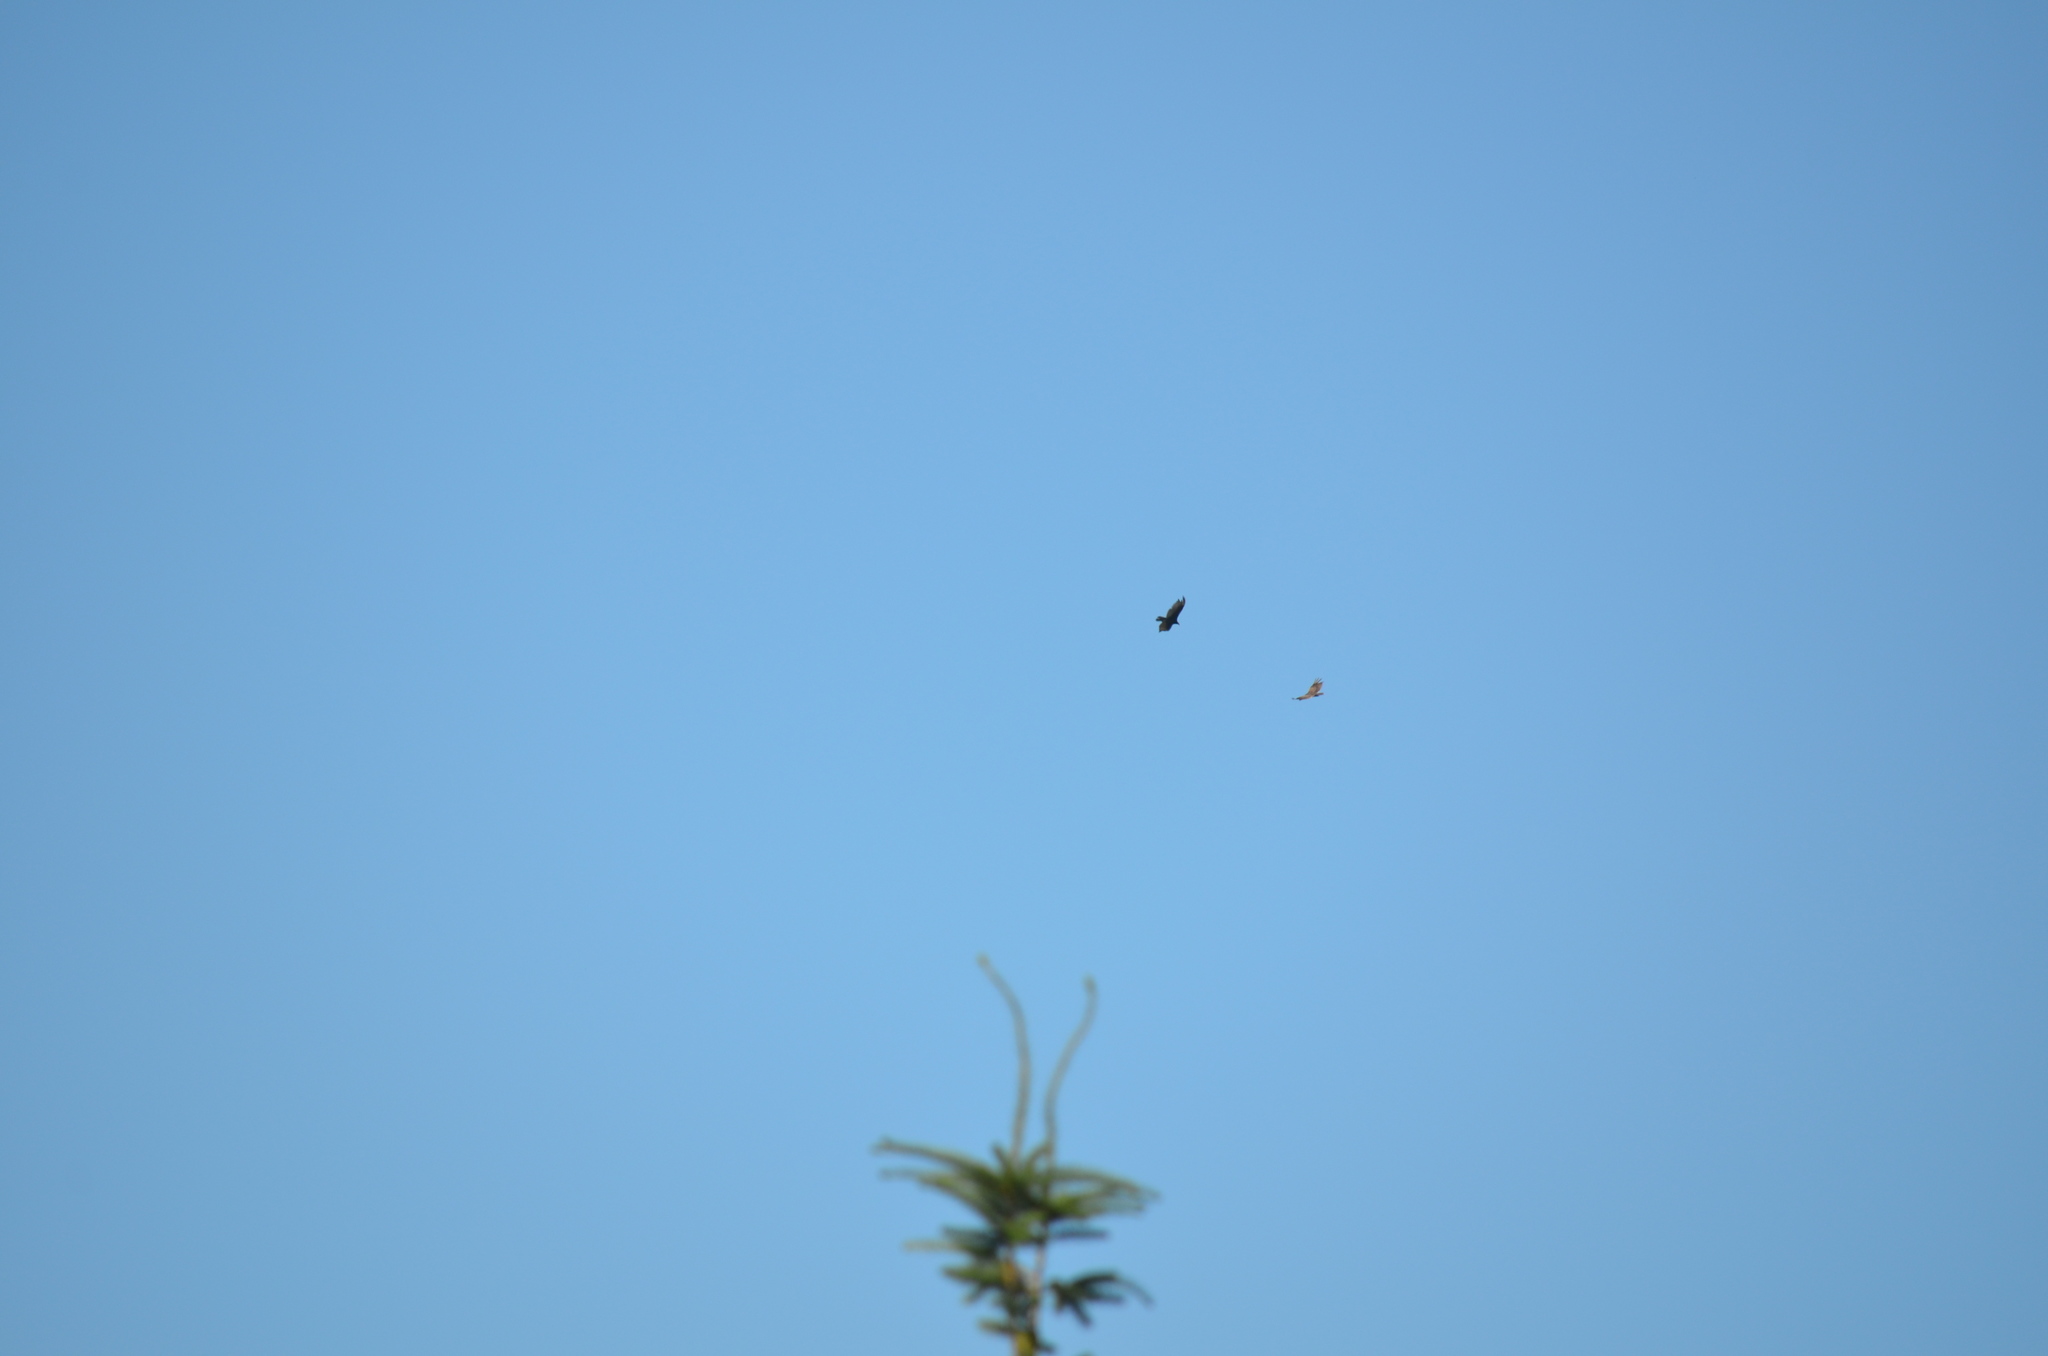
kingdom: Animalia
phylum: Chordata
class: Aves
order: Accipitriformes
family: Cathartidae
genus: Cathartes
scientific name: Cathartes aura
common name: Turkey vulture
